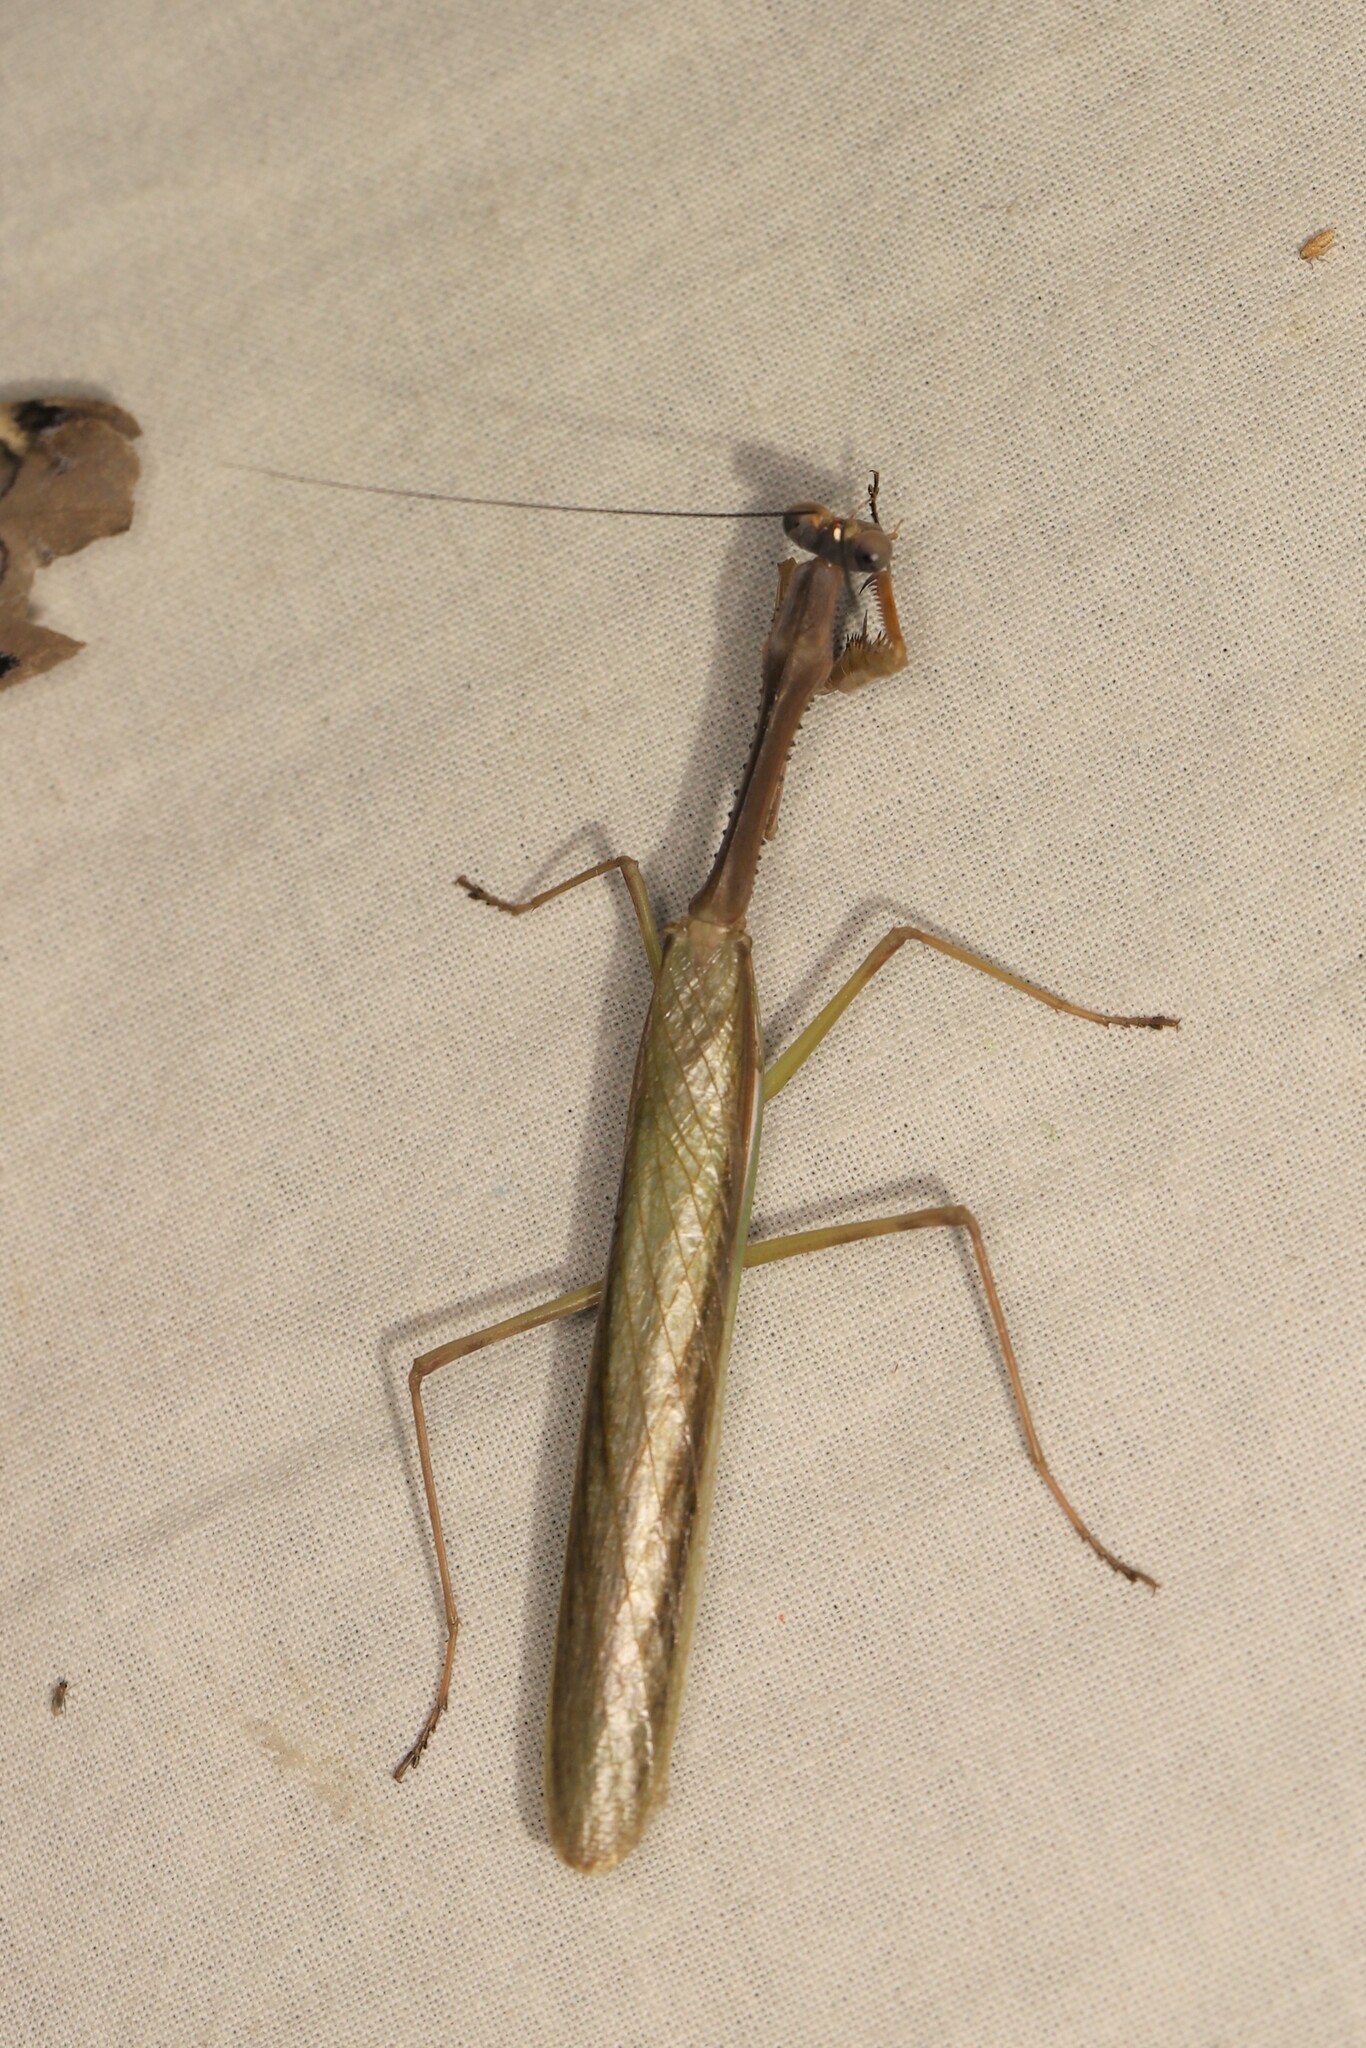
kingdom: Animalia
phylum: Arthropoda
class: Insecta
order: Mantodea
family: Mantidae
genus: Stagmomantis
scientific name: Stagmomantis theophila
